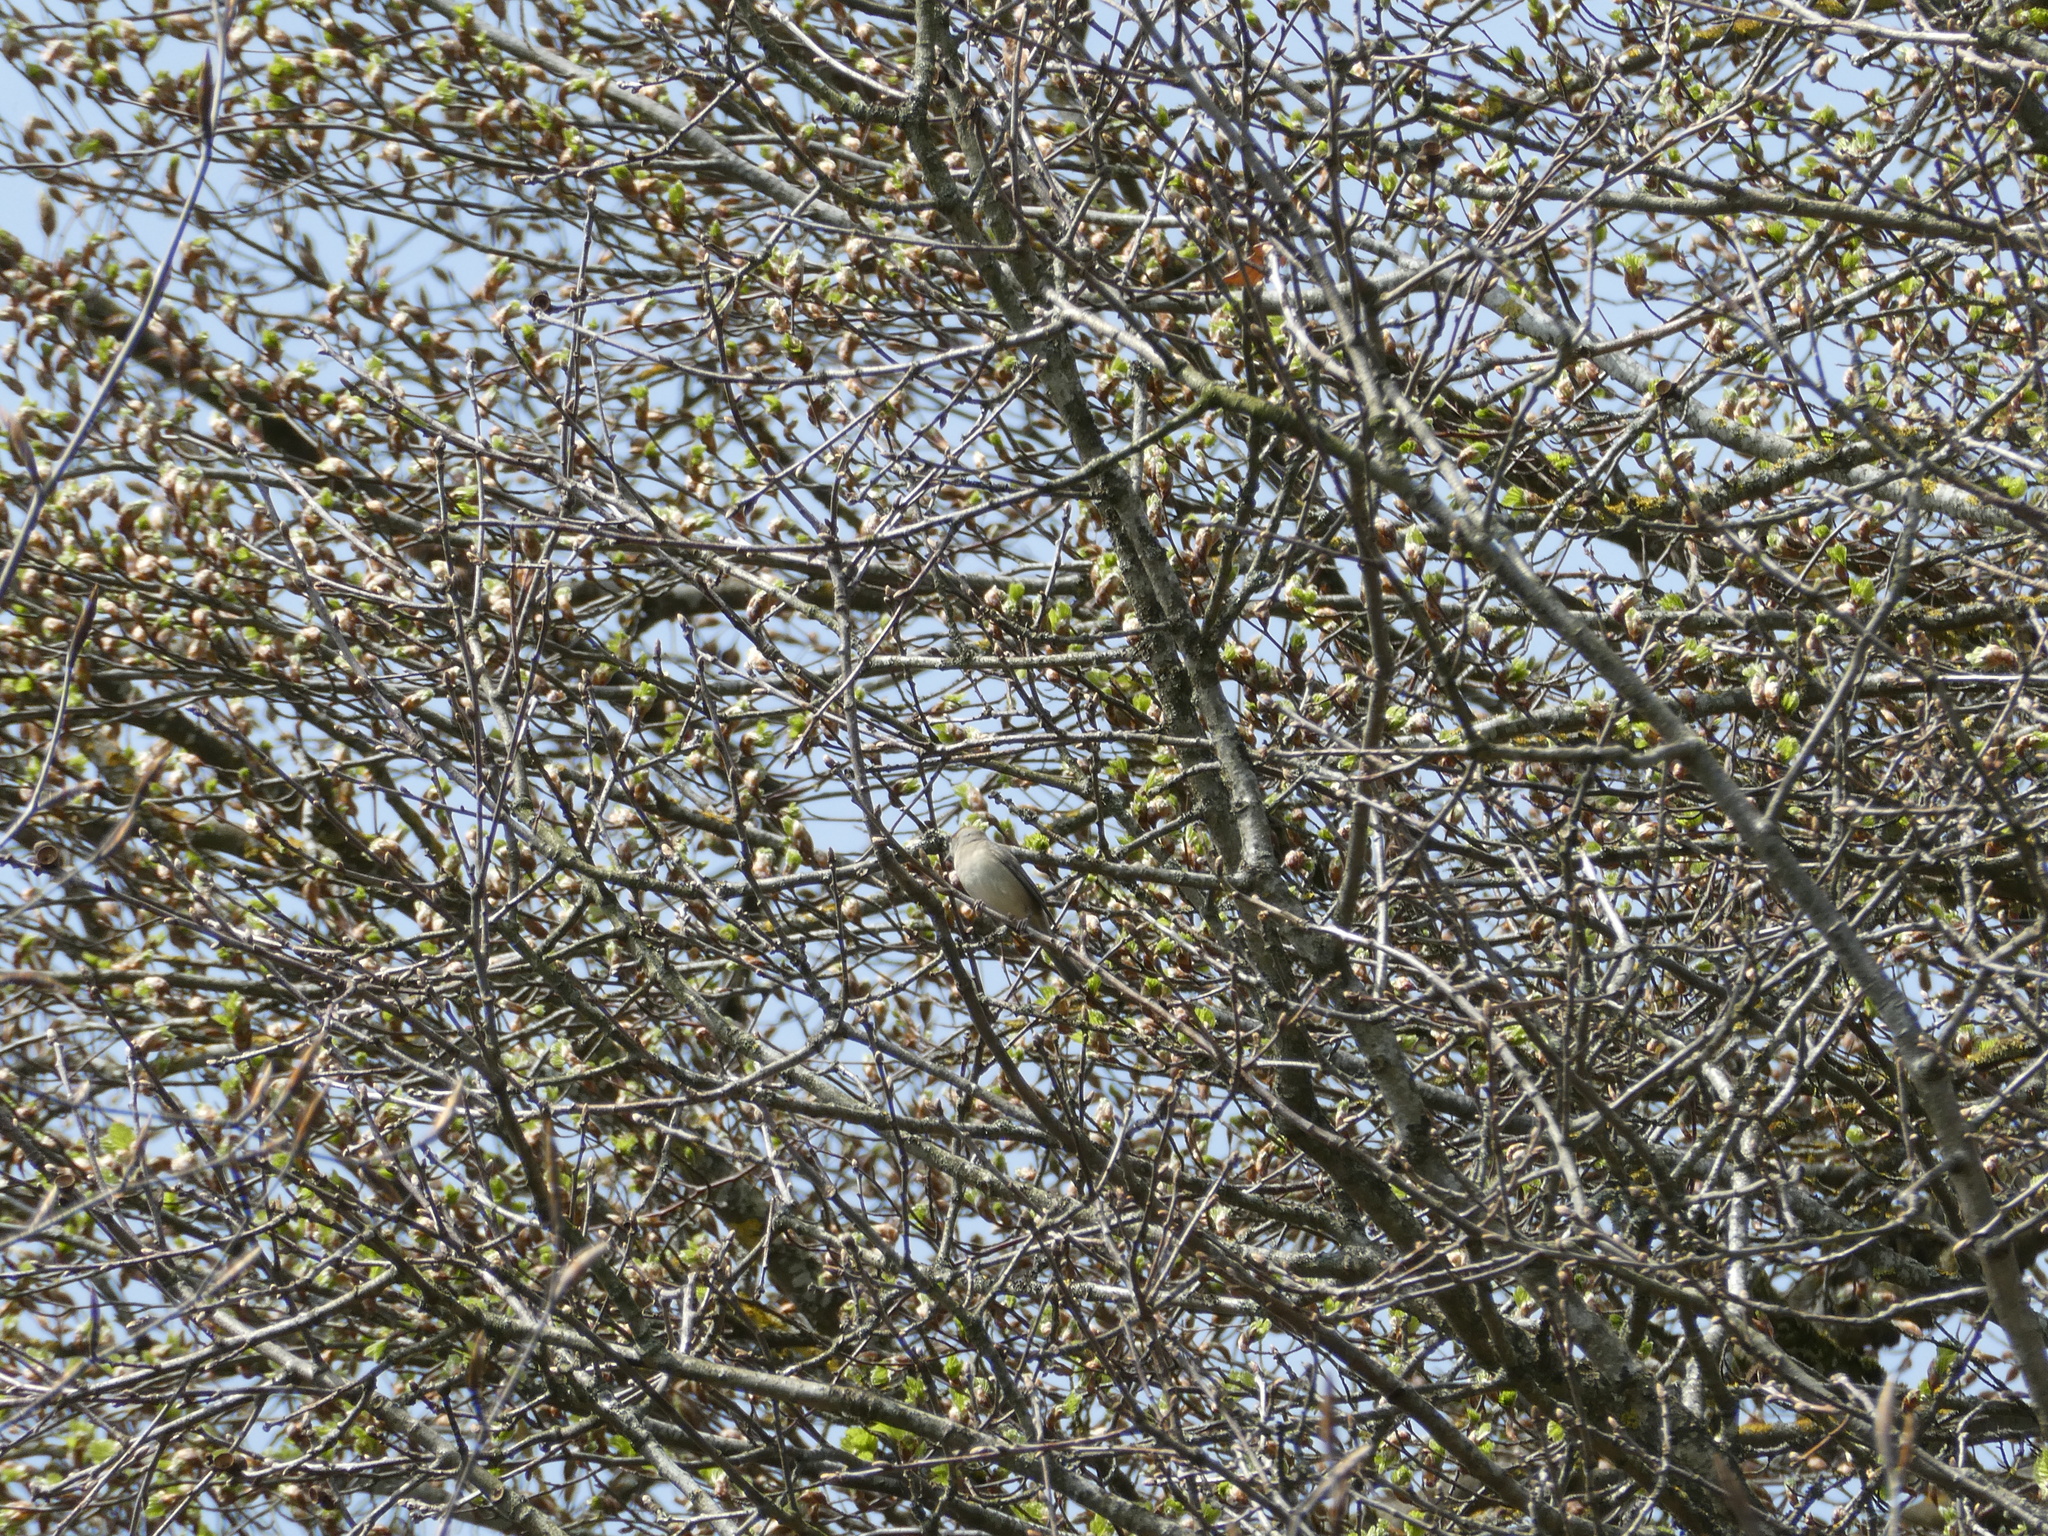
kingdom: Animalia
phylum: Chordata
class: Aves
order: Passeriformes
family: Phylloscopidae
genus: Phylloscopus
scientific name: Phylloscopus collybita
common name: Common chiffchaff
